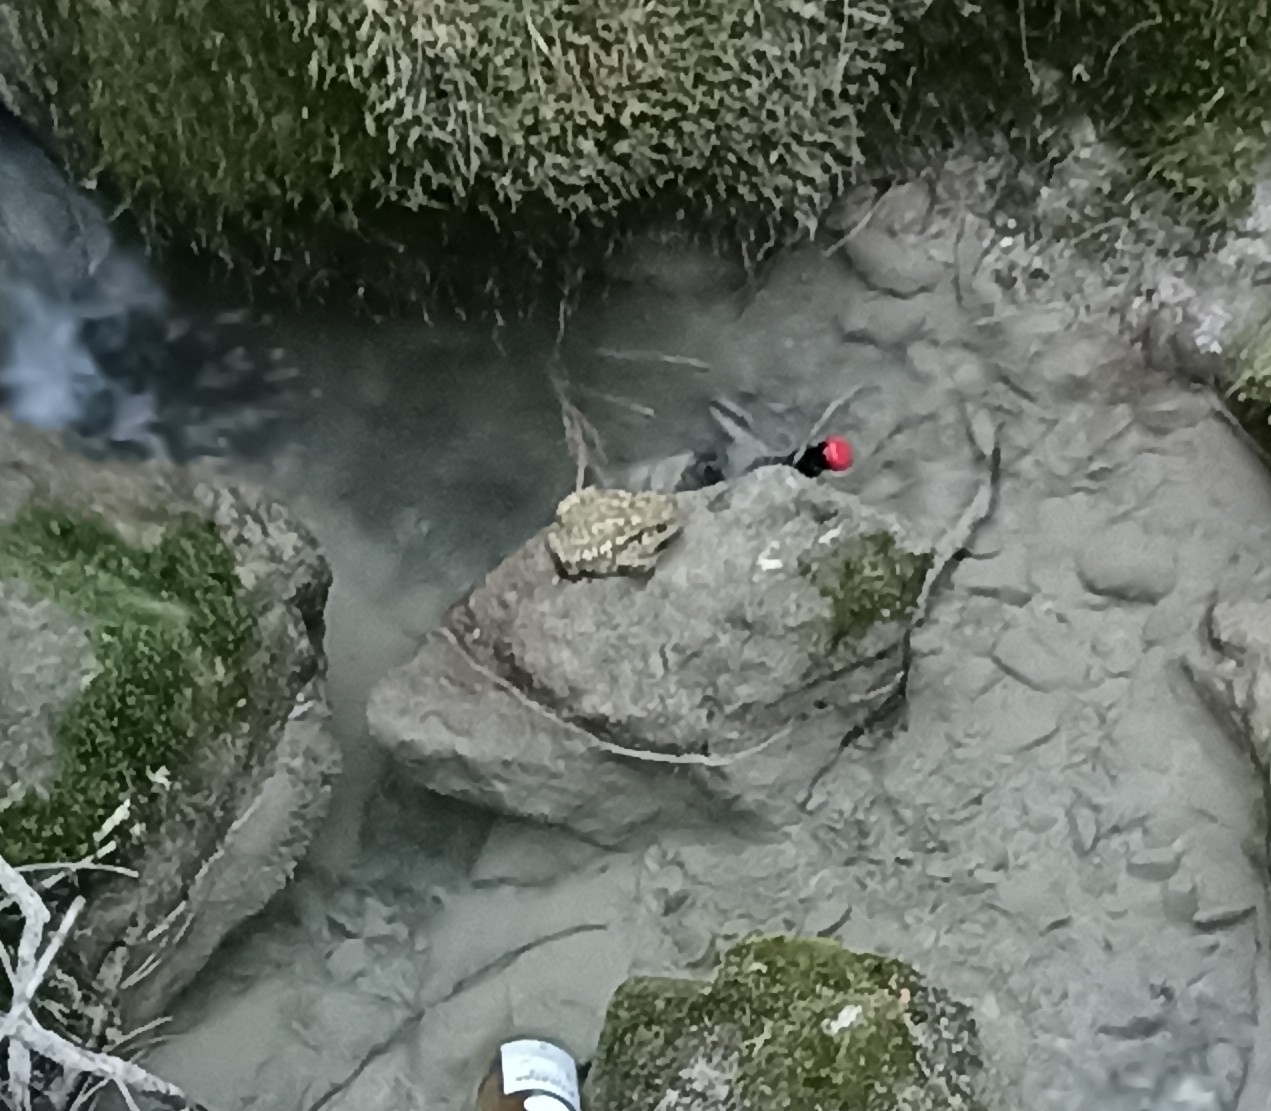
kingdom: Animalia
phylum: Chordata
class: Amphibia
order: Anura
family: Bufonidae
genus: Bufo
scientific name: Bufo spinosus
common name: Western common toad
